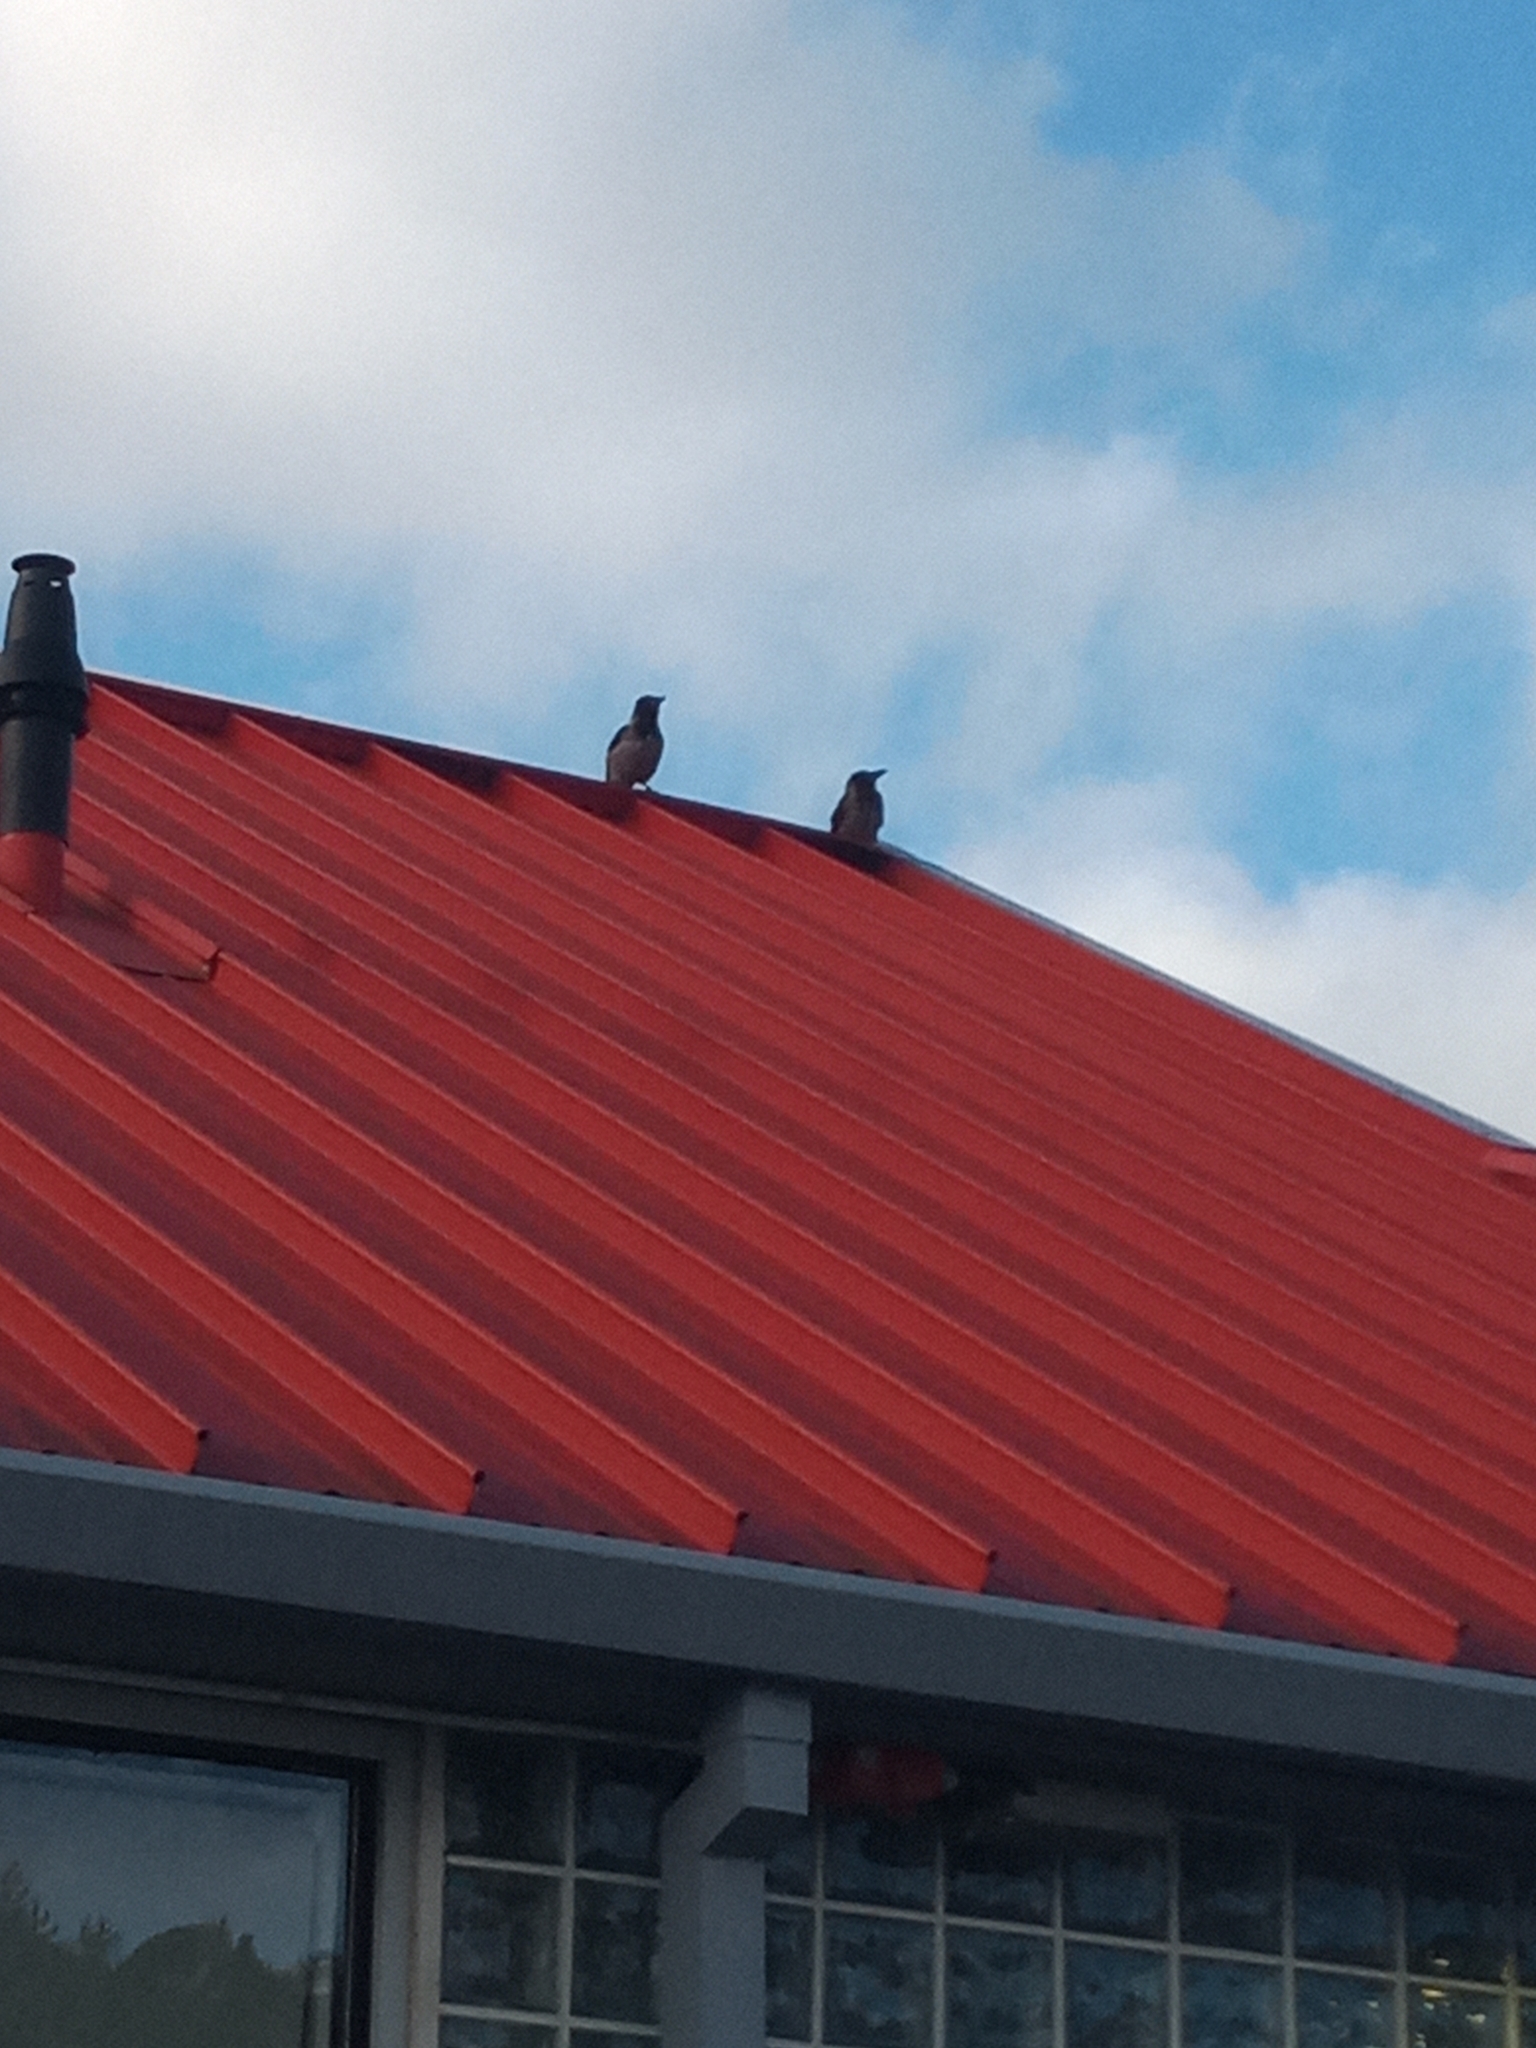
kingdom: Animalia
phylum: Chordata
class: Aves
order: Passeriformes
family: Corvidae
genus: Corvus
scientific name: Corvus cornix
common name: Hooded crow
